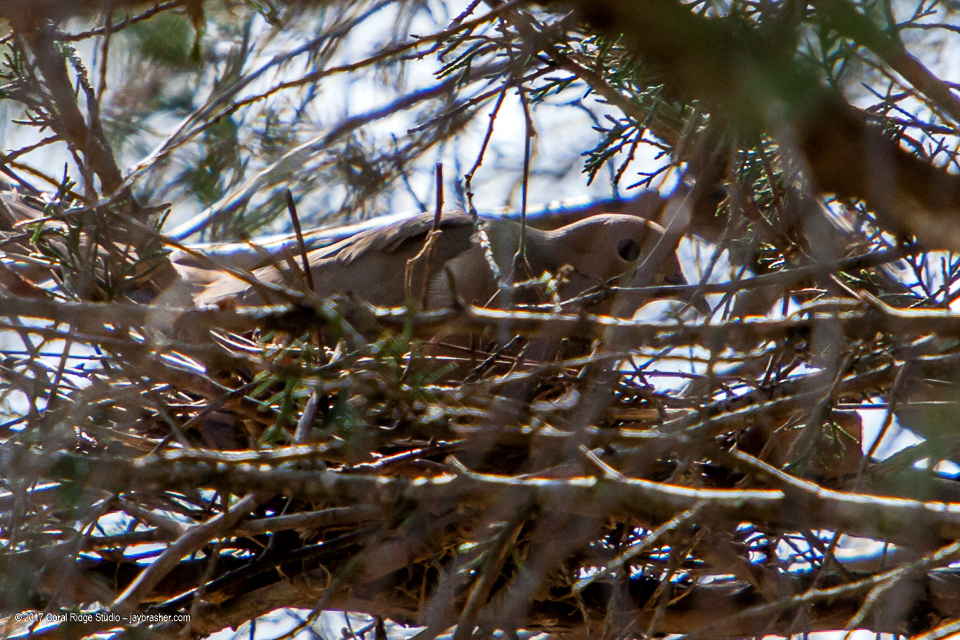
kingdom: Animalia
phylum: Chordata
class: Aves
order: Columbiformes
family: Columbidae
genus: Zenaida
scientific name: Zenaida macroura
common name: Mourning dove
